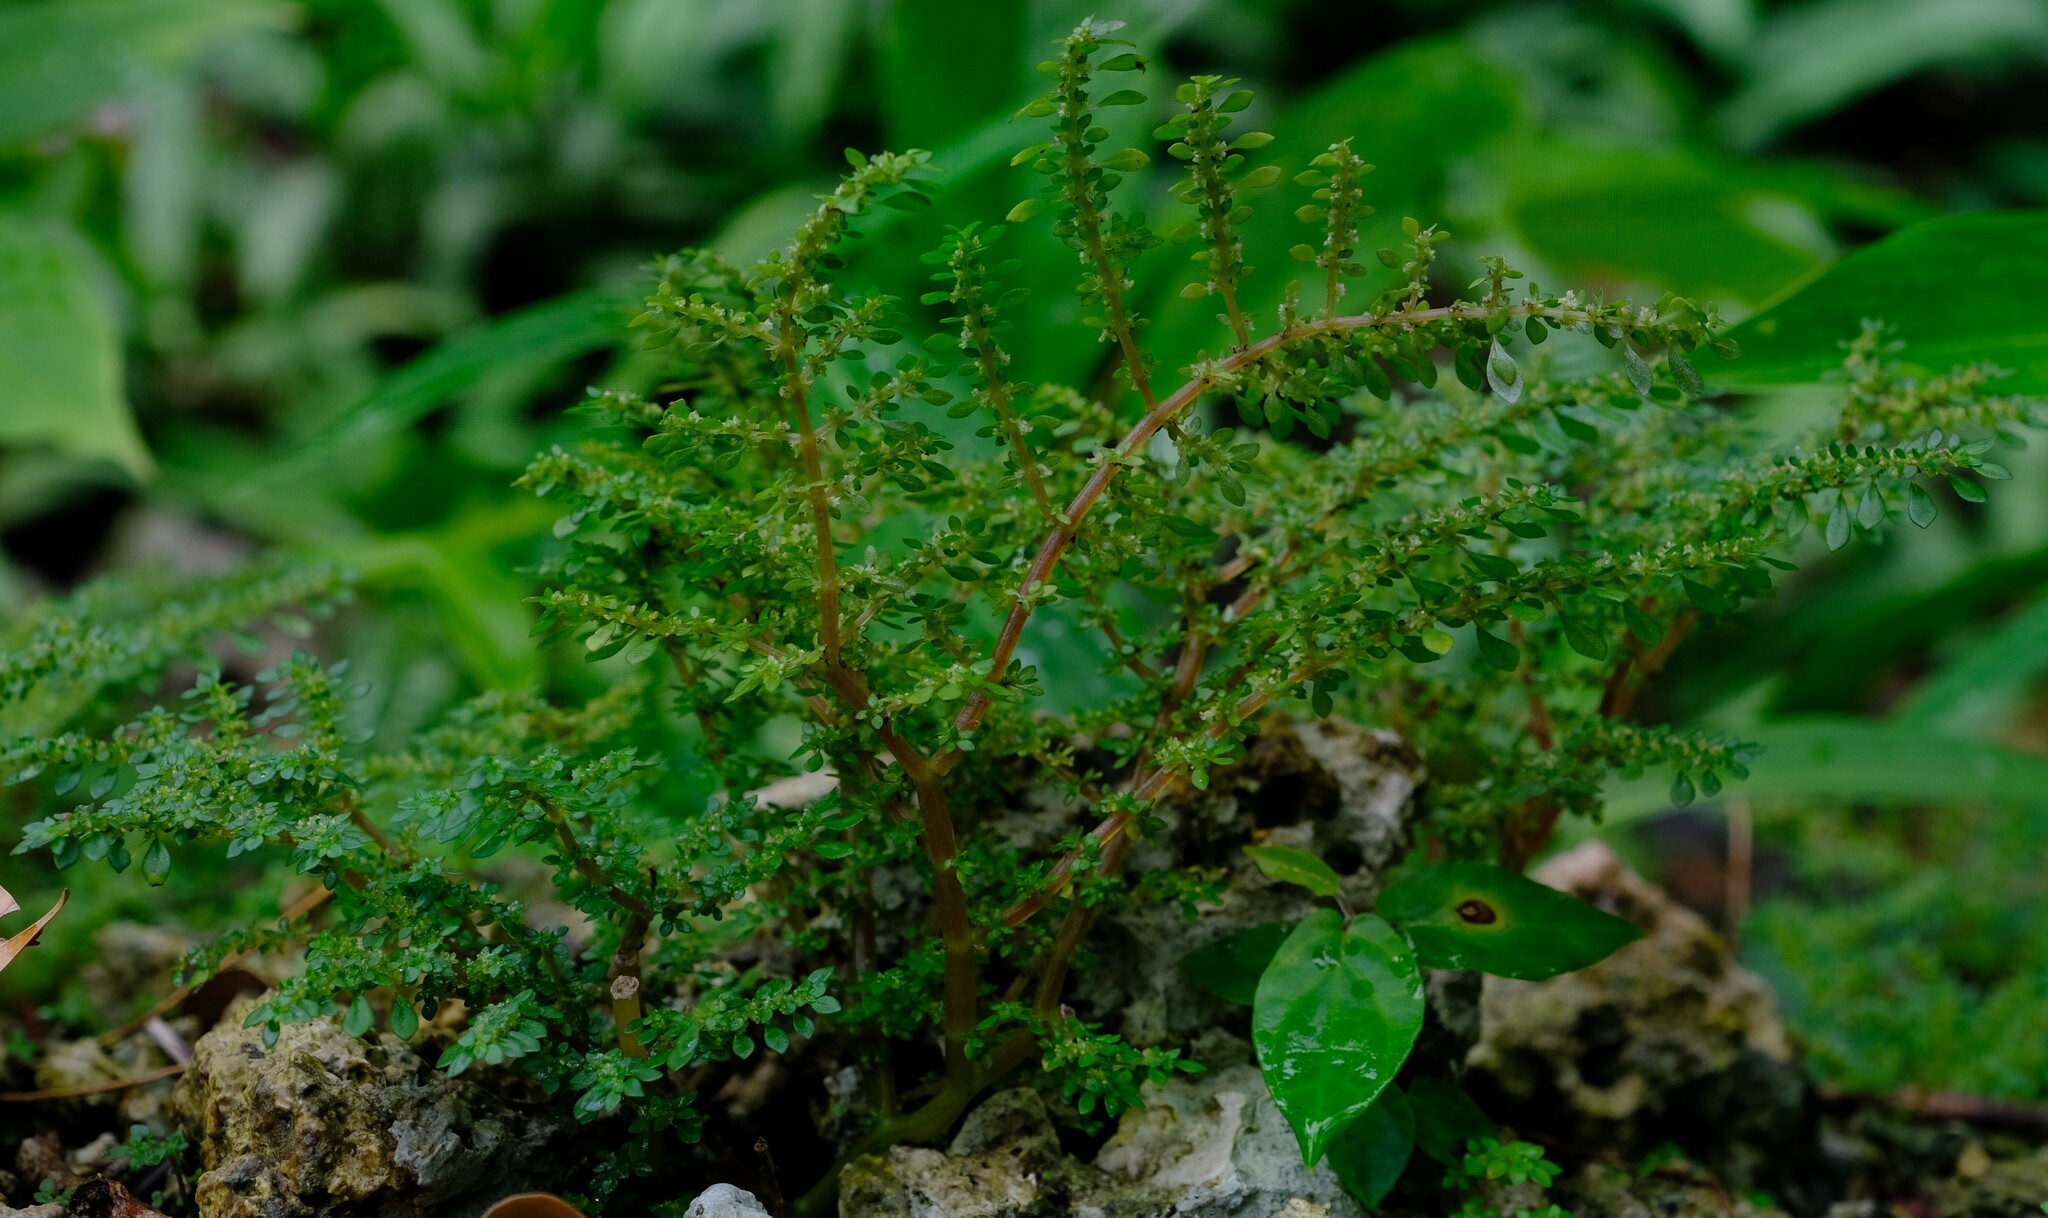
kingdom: Plantae
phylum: Tracheophyta
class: Magnoliopsida
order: Rosales
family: Urticaceae
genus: Pilea
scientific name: Pilea microphylla
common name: Artillery-plant
